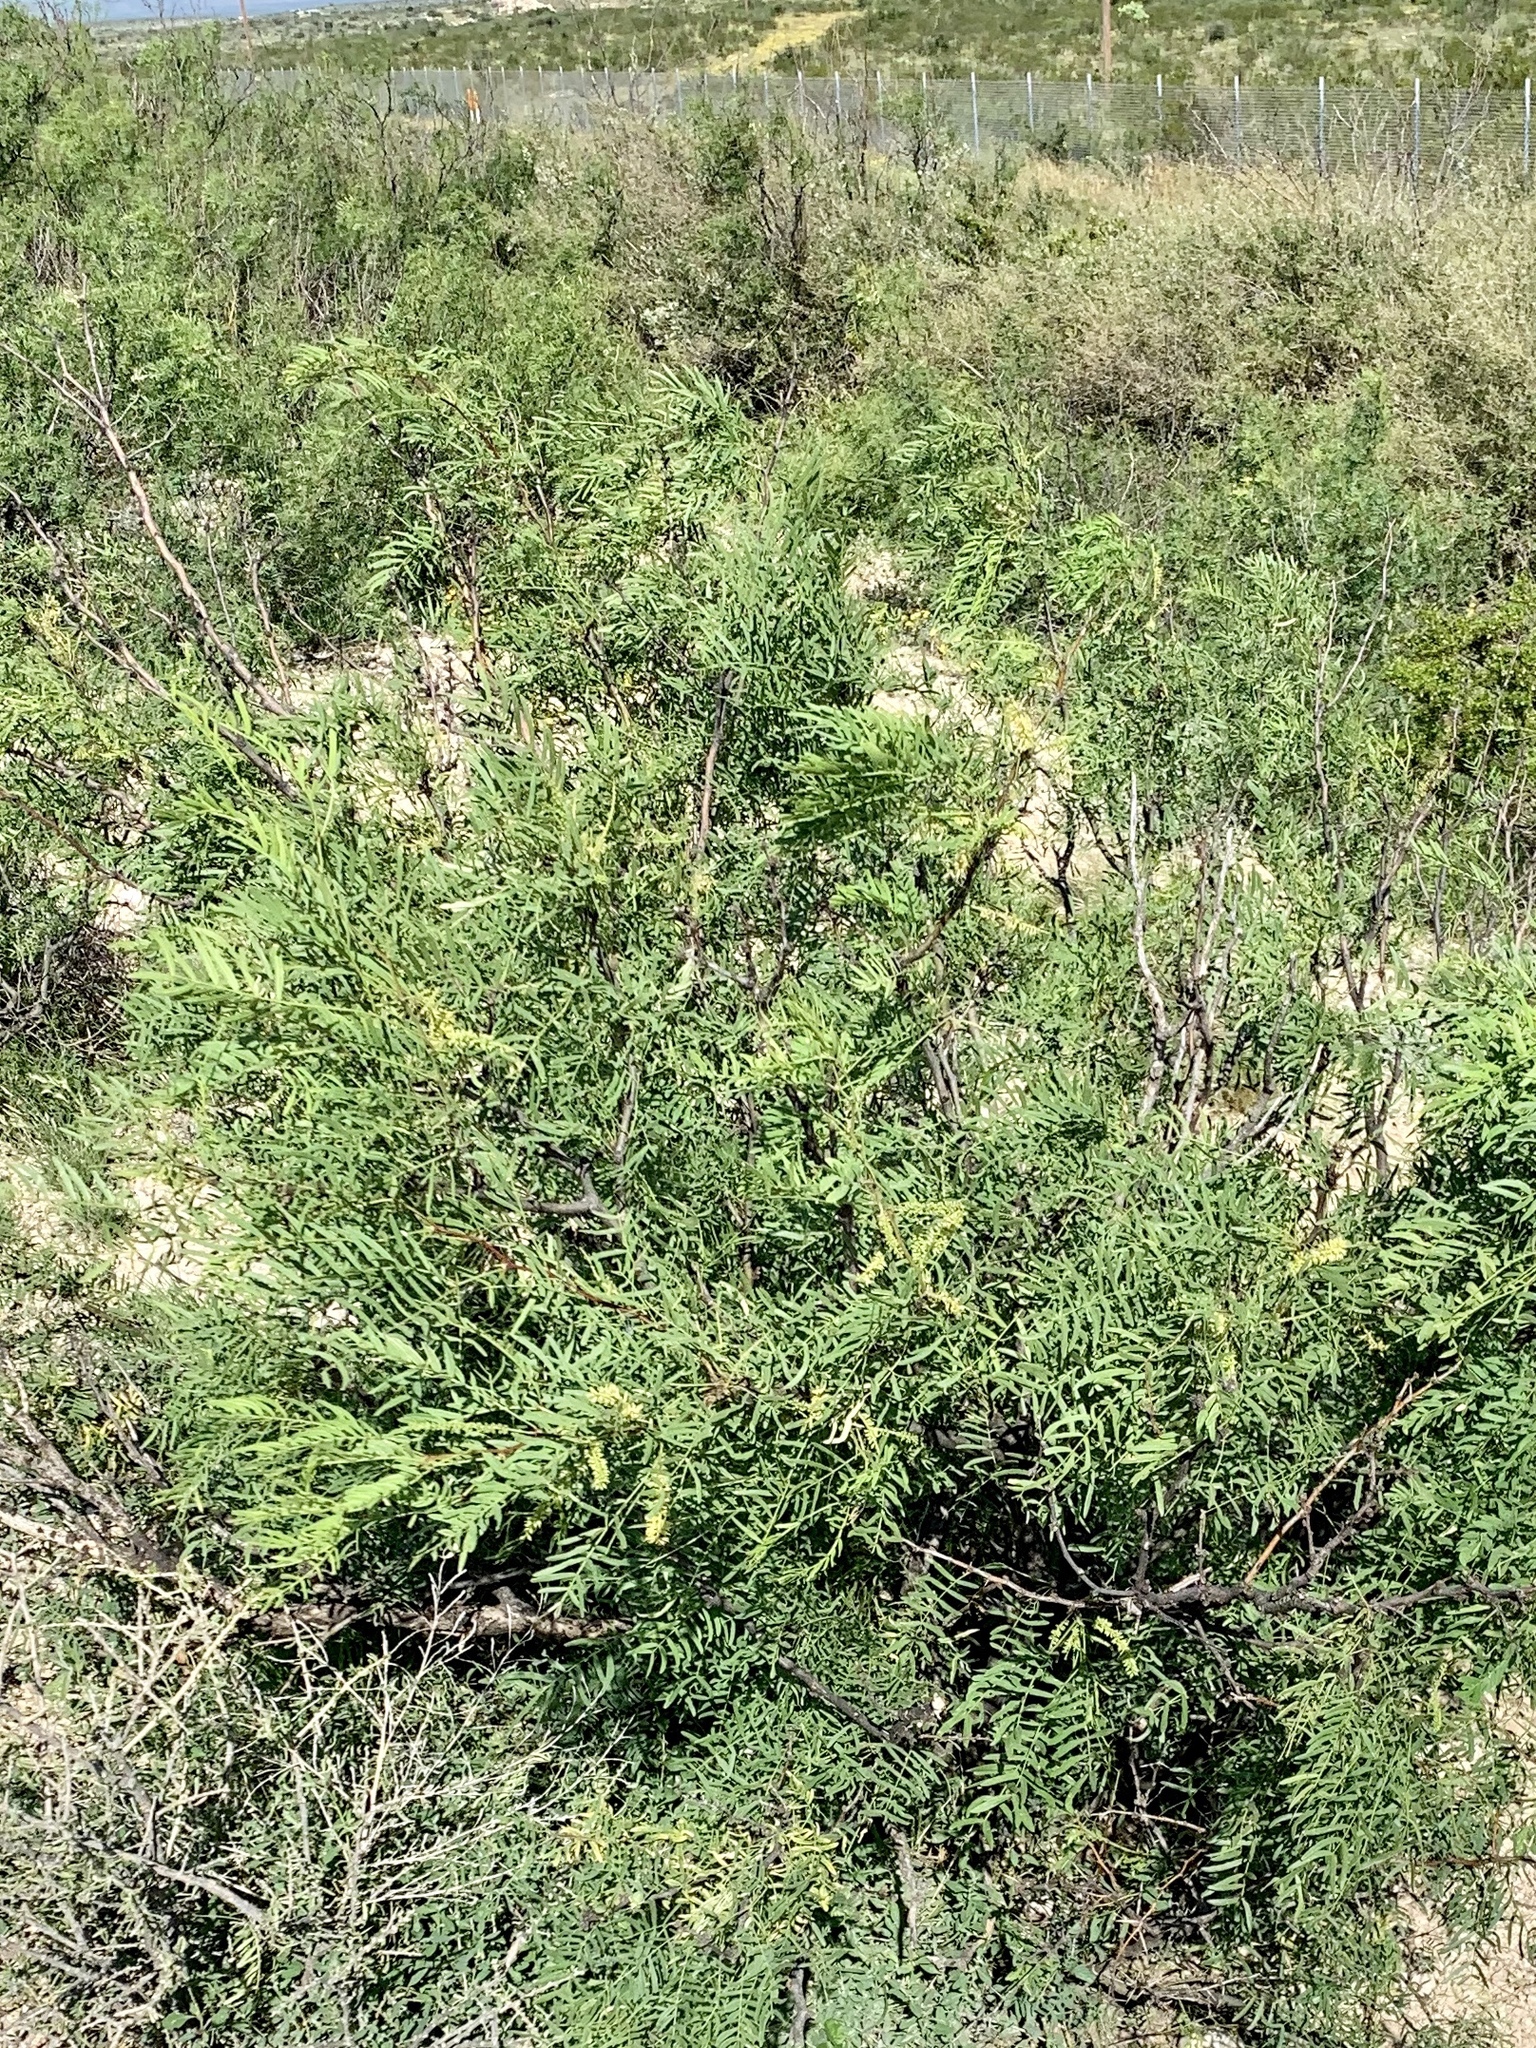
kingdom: Plantae
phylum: Tracheophyta
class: Magnoliopsida
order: Fabales
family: Fabaceae
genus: Prosopis
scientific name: Prosopis glandulosa
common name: Honey mesquite
